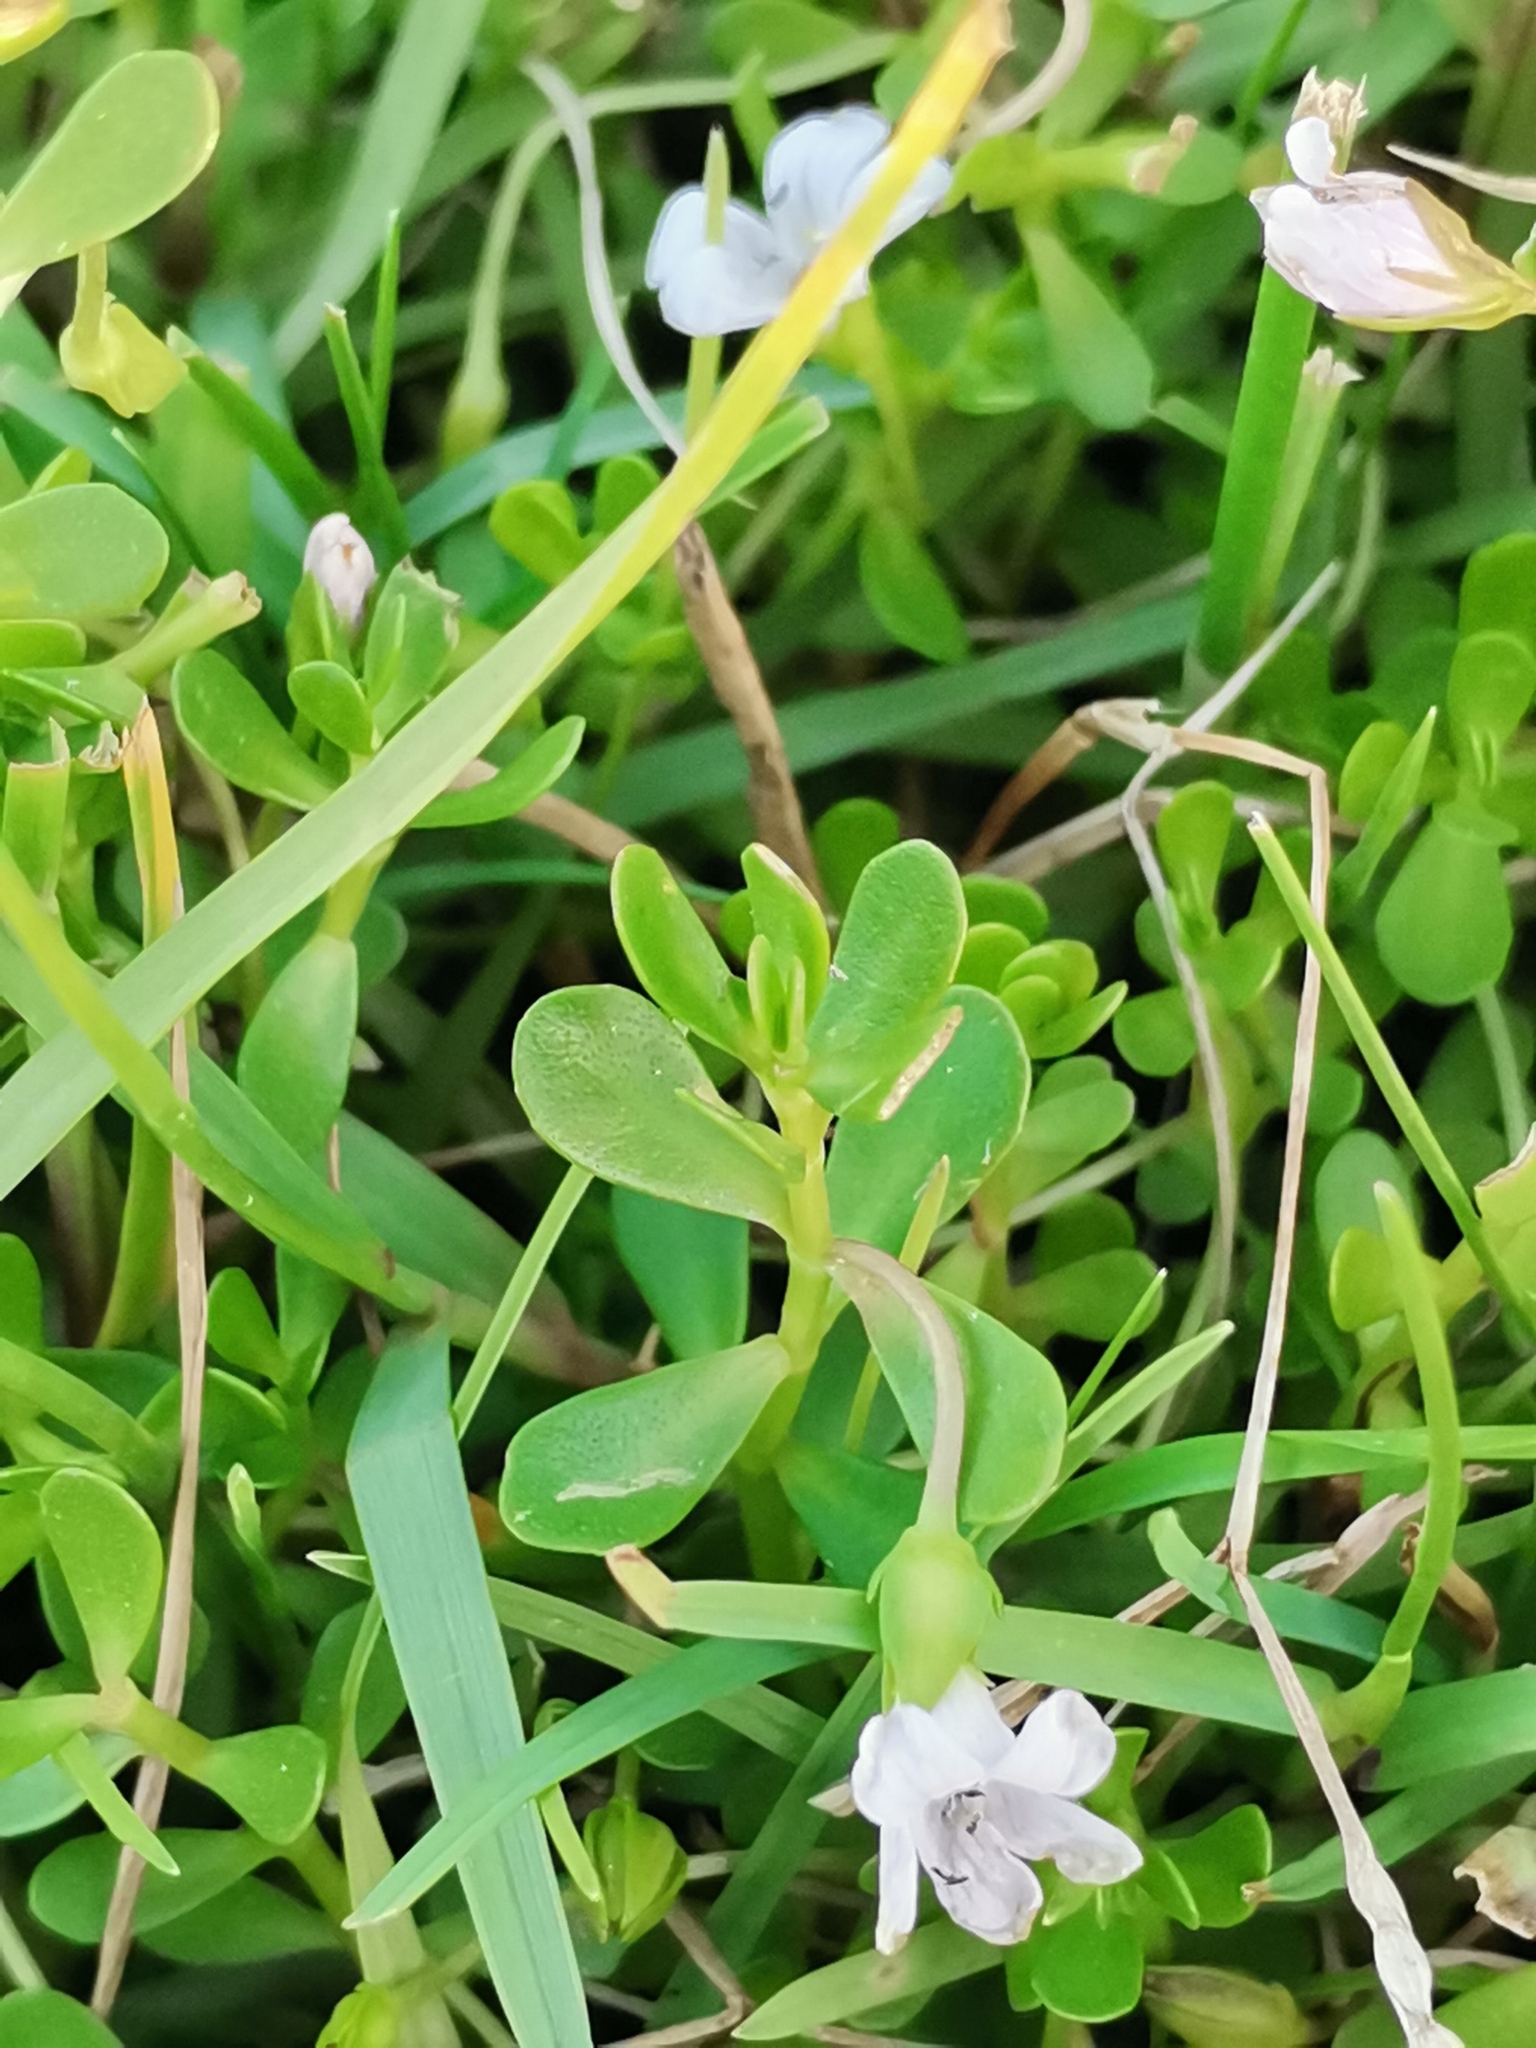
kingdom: Plantae
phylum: Tracheophyta
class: Magnoliopsida
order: Lamiales
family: Plantaginaceae
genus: Bacopa
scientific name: Bacopa monnieri
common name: Indian-pennywort
